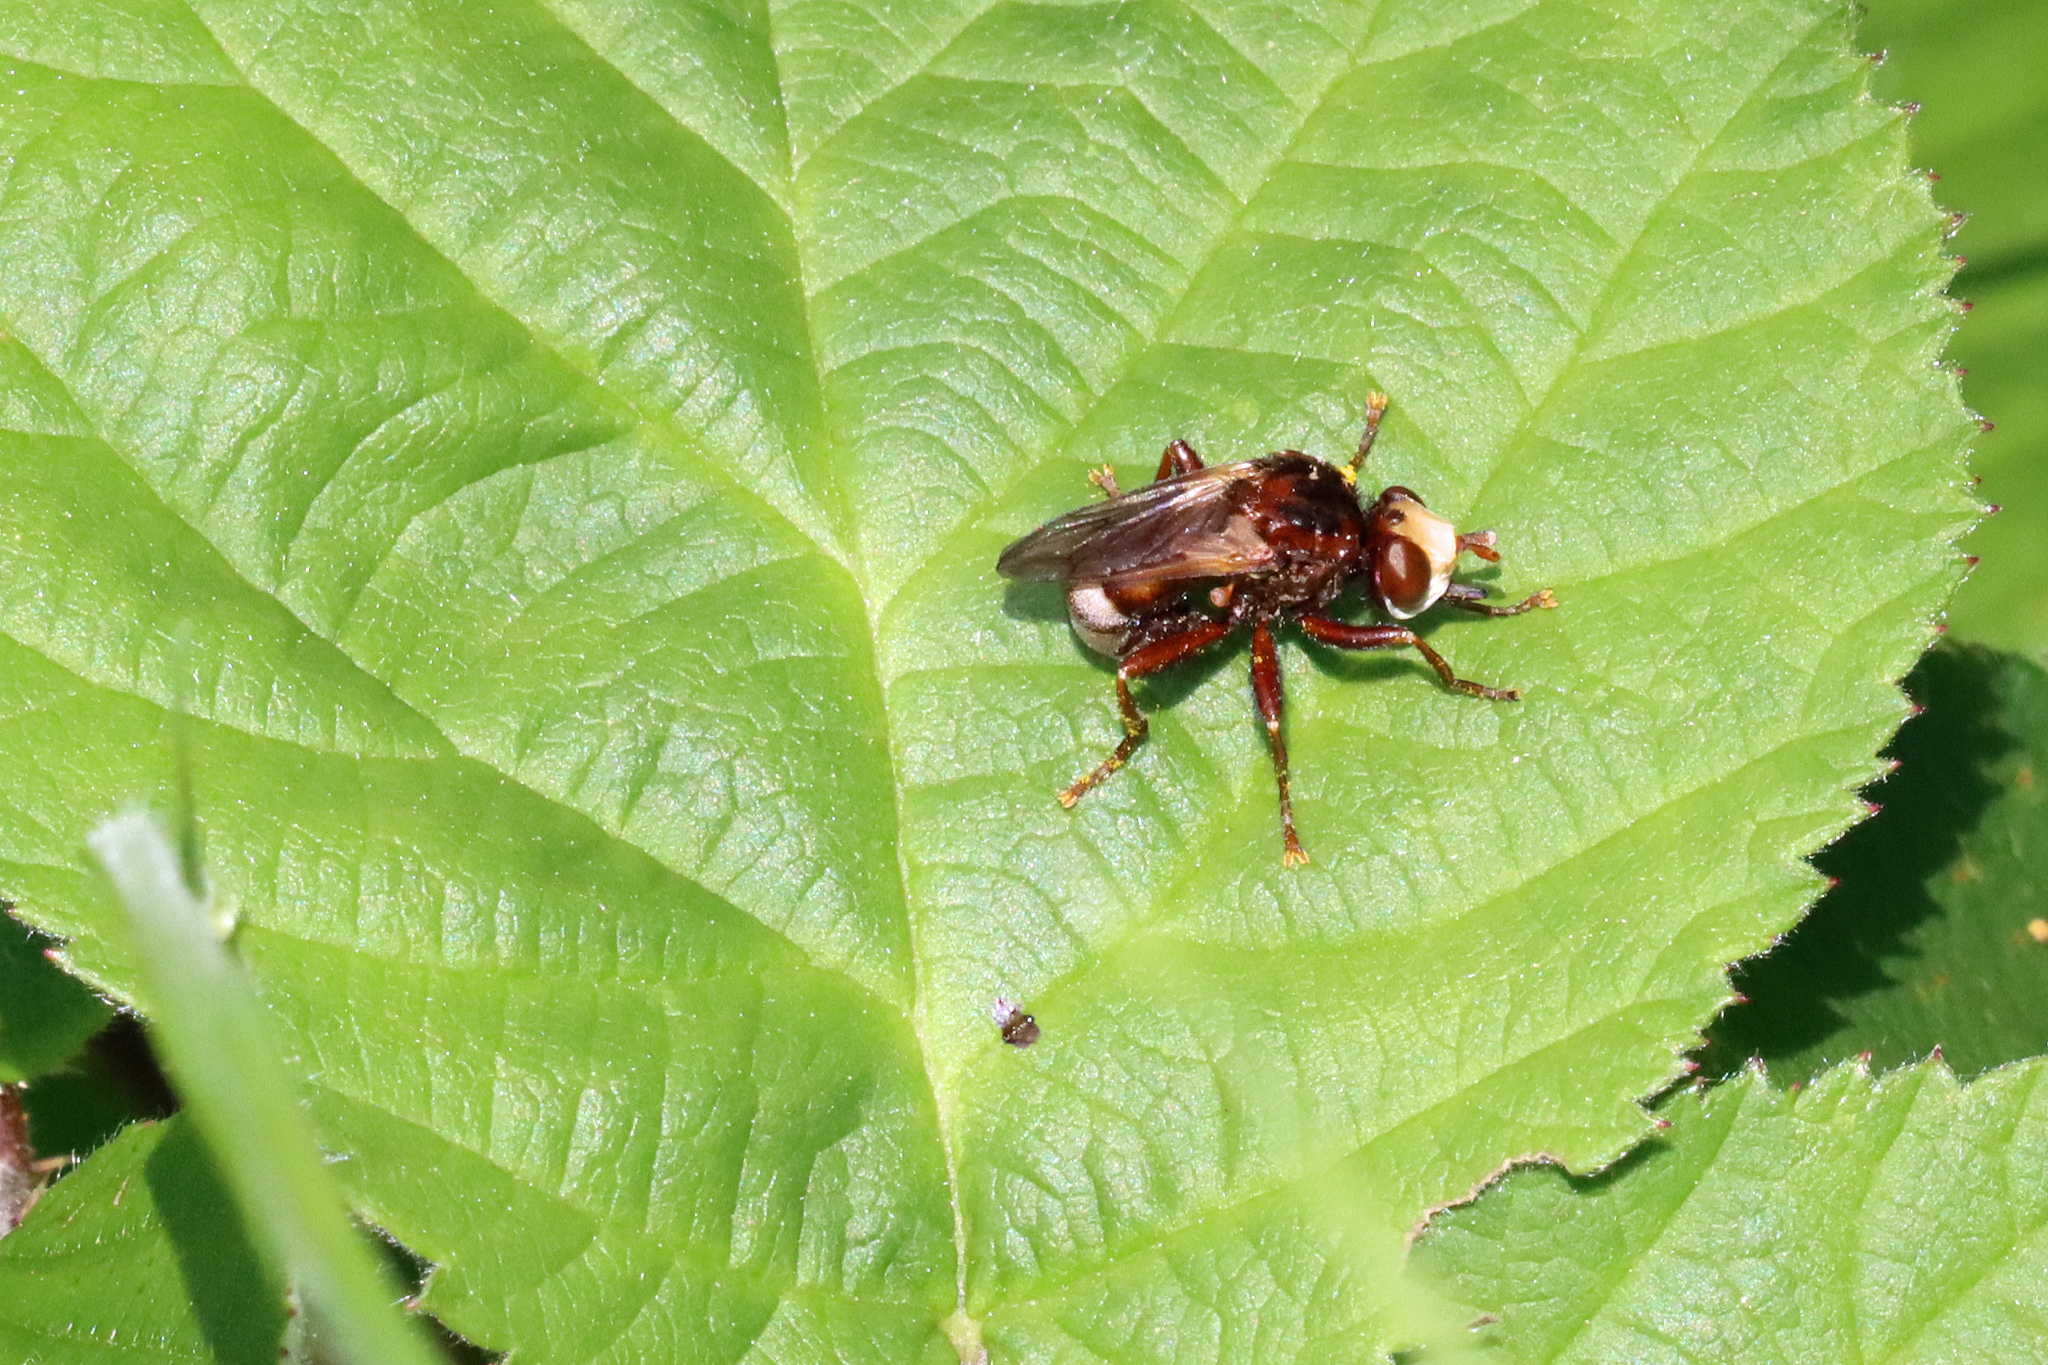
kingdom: Animalia
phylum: Arthropoda
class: Insecta
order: Diptera
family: Conopidae
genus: Sicus
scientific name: Sicus ferrugineus
